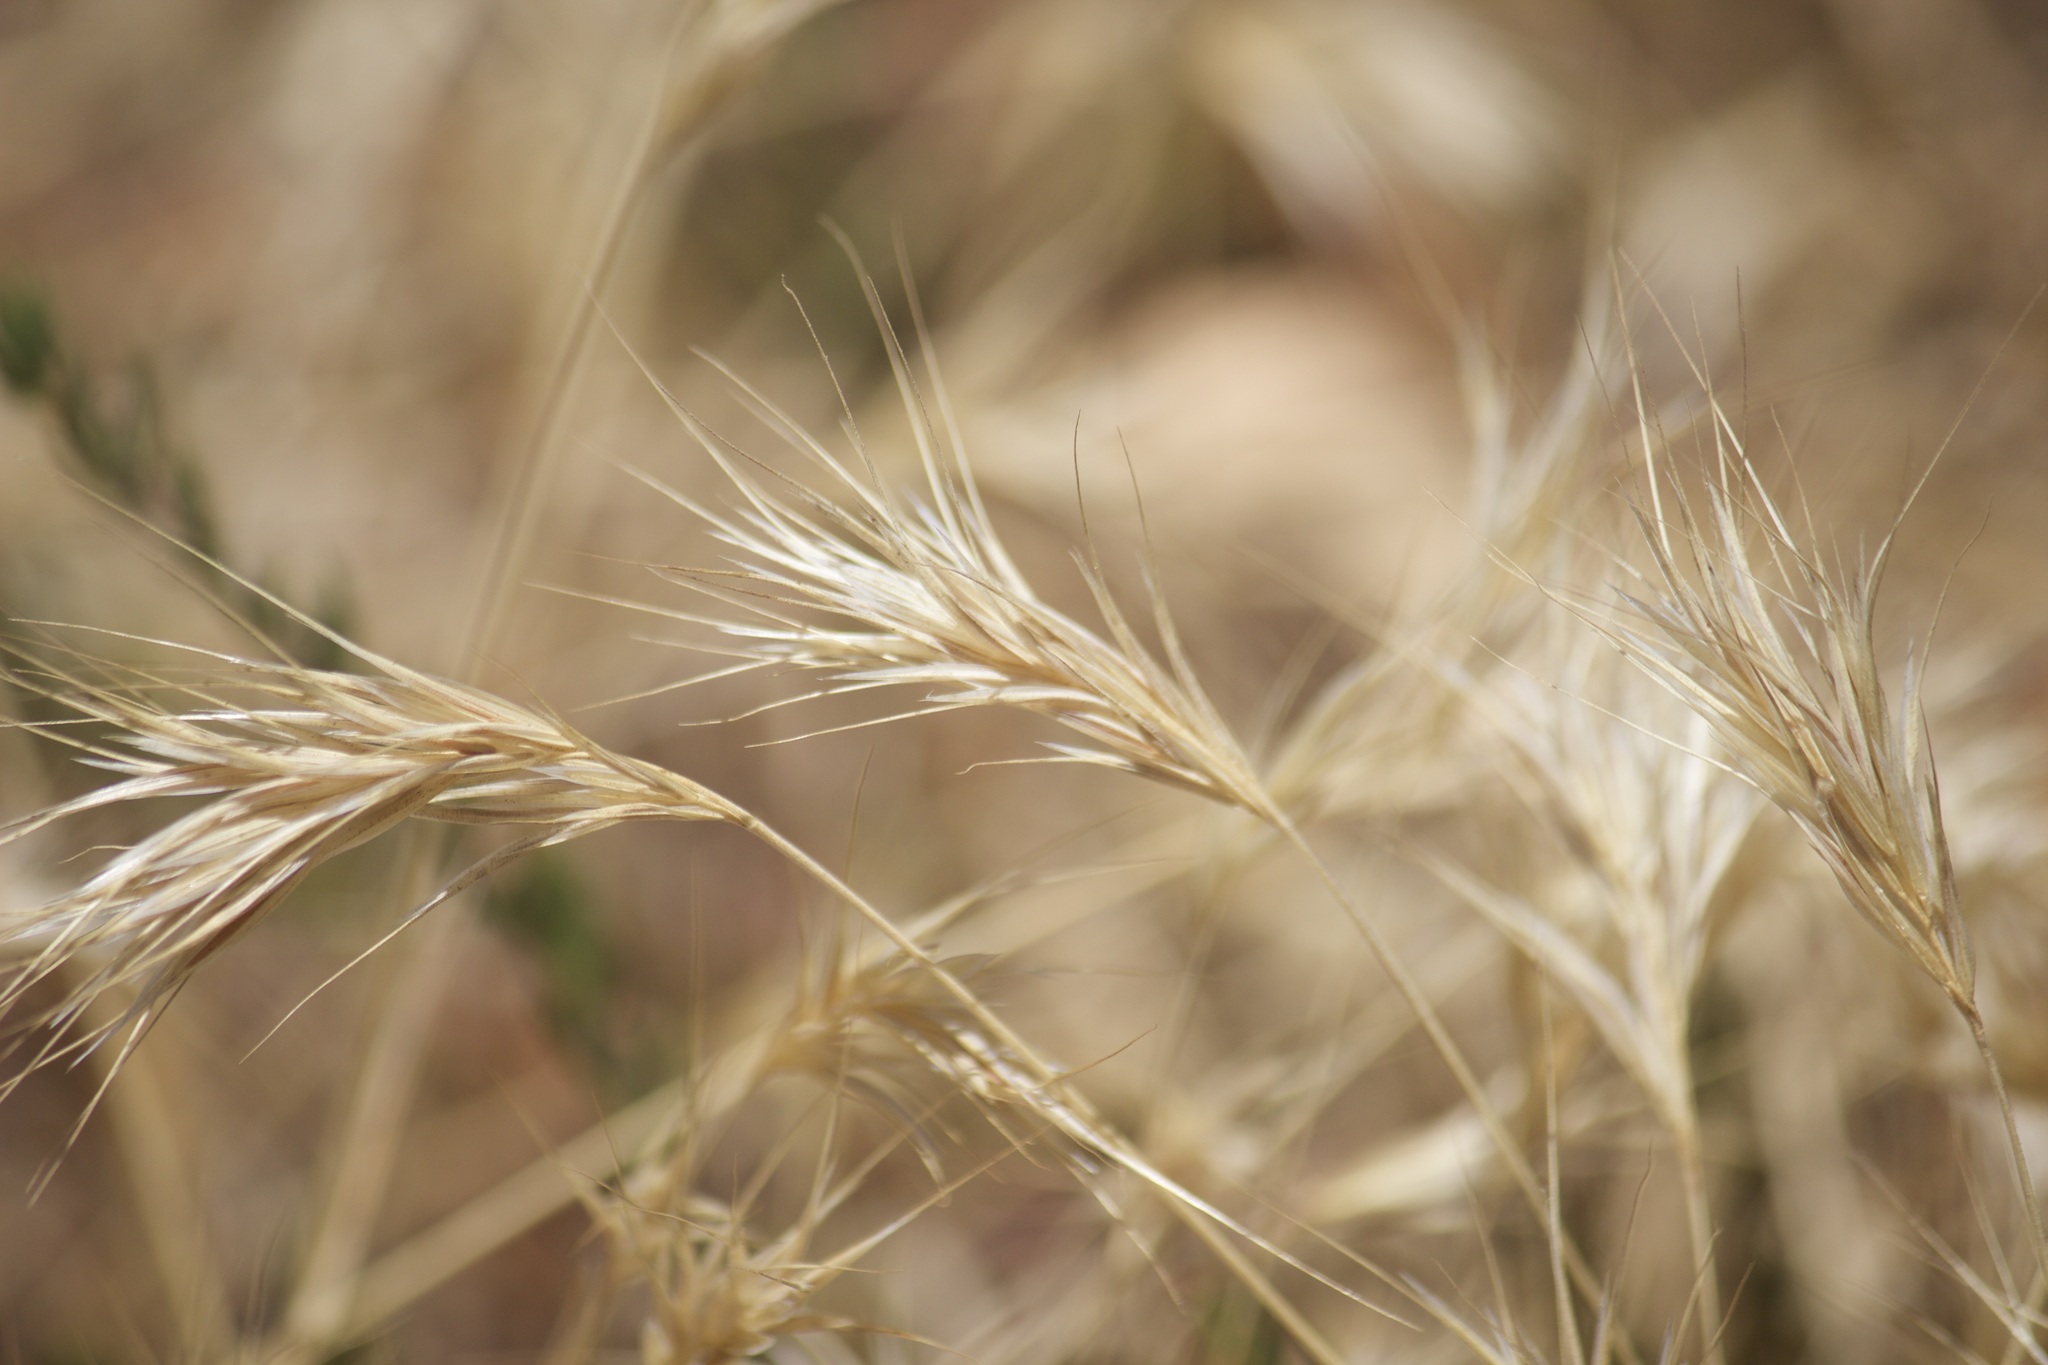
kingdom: Plantae
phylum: Tracheophyta
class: Liliopsida
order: Poales
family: Poaceae
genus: Bromus
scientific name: Bromus rubens
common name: Red brome
